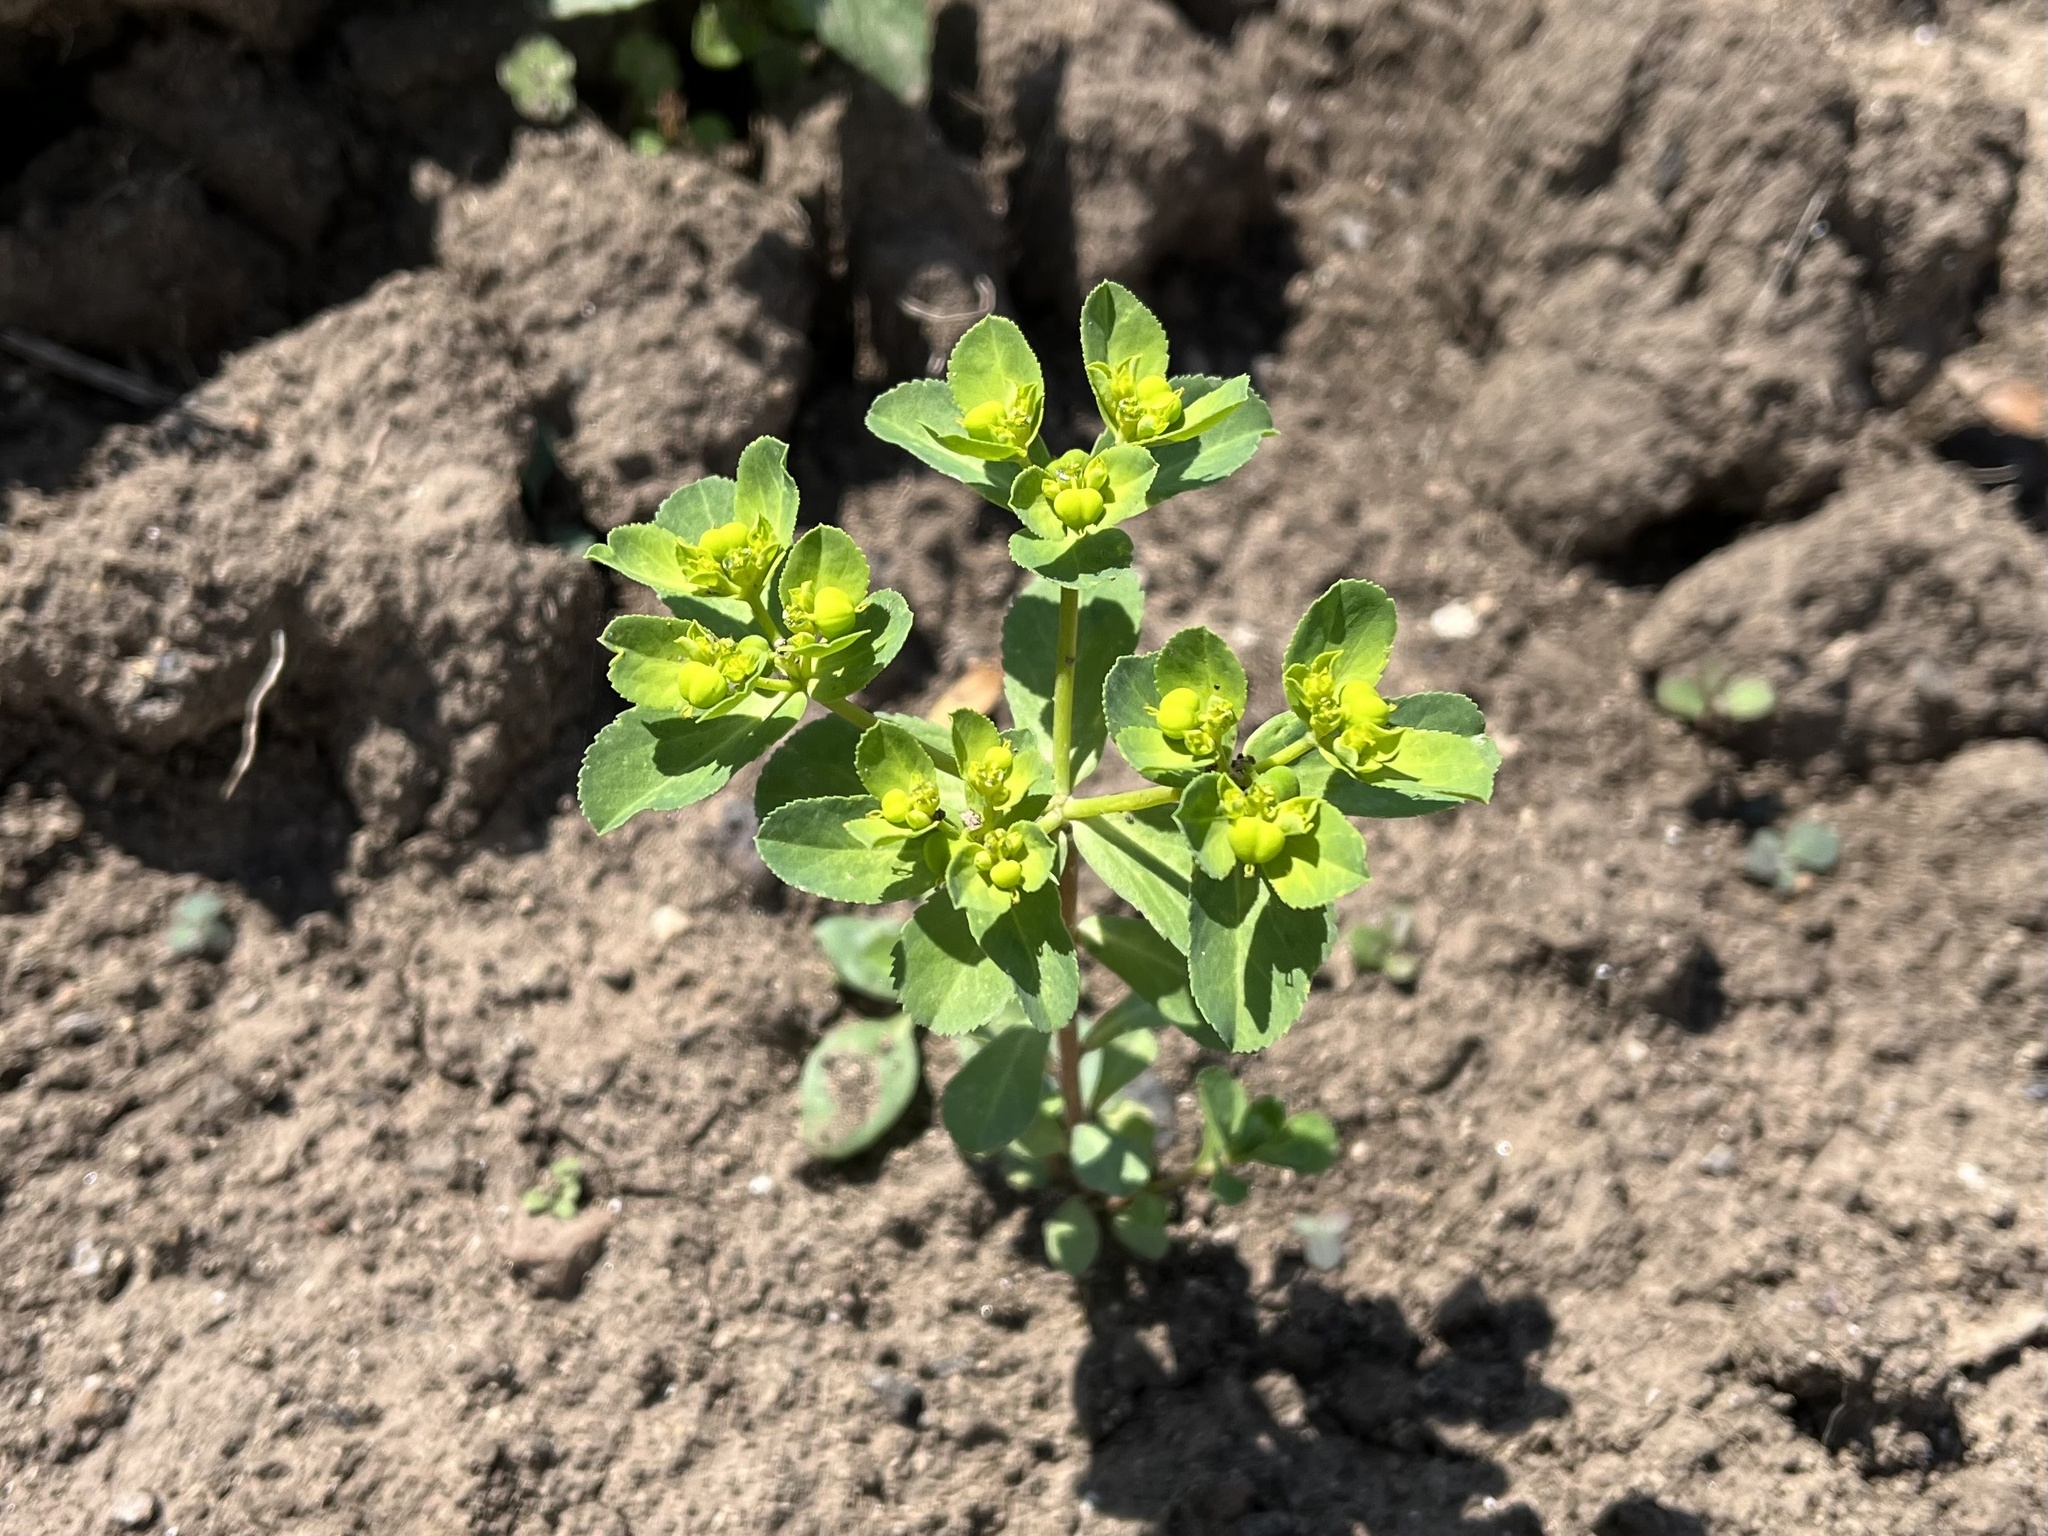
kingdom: Plantae
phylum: Tracheophyta
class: Magnoliopsida
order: Malpighiales
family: Euphorbiaceae
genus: Euphorbia
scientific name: Euphorbia helioscopia
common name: Sun spurge
